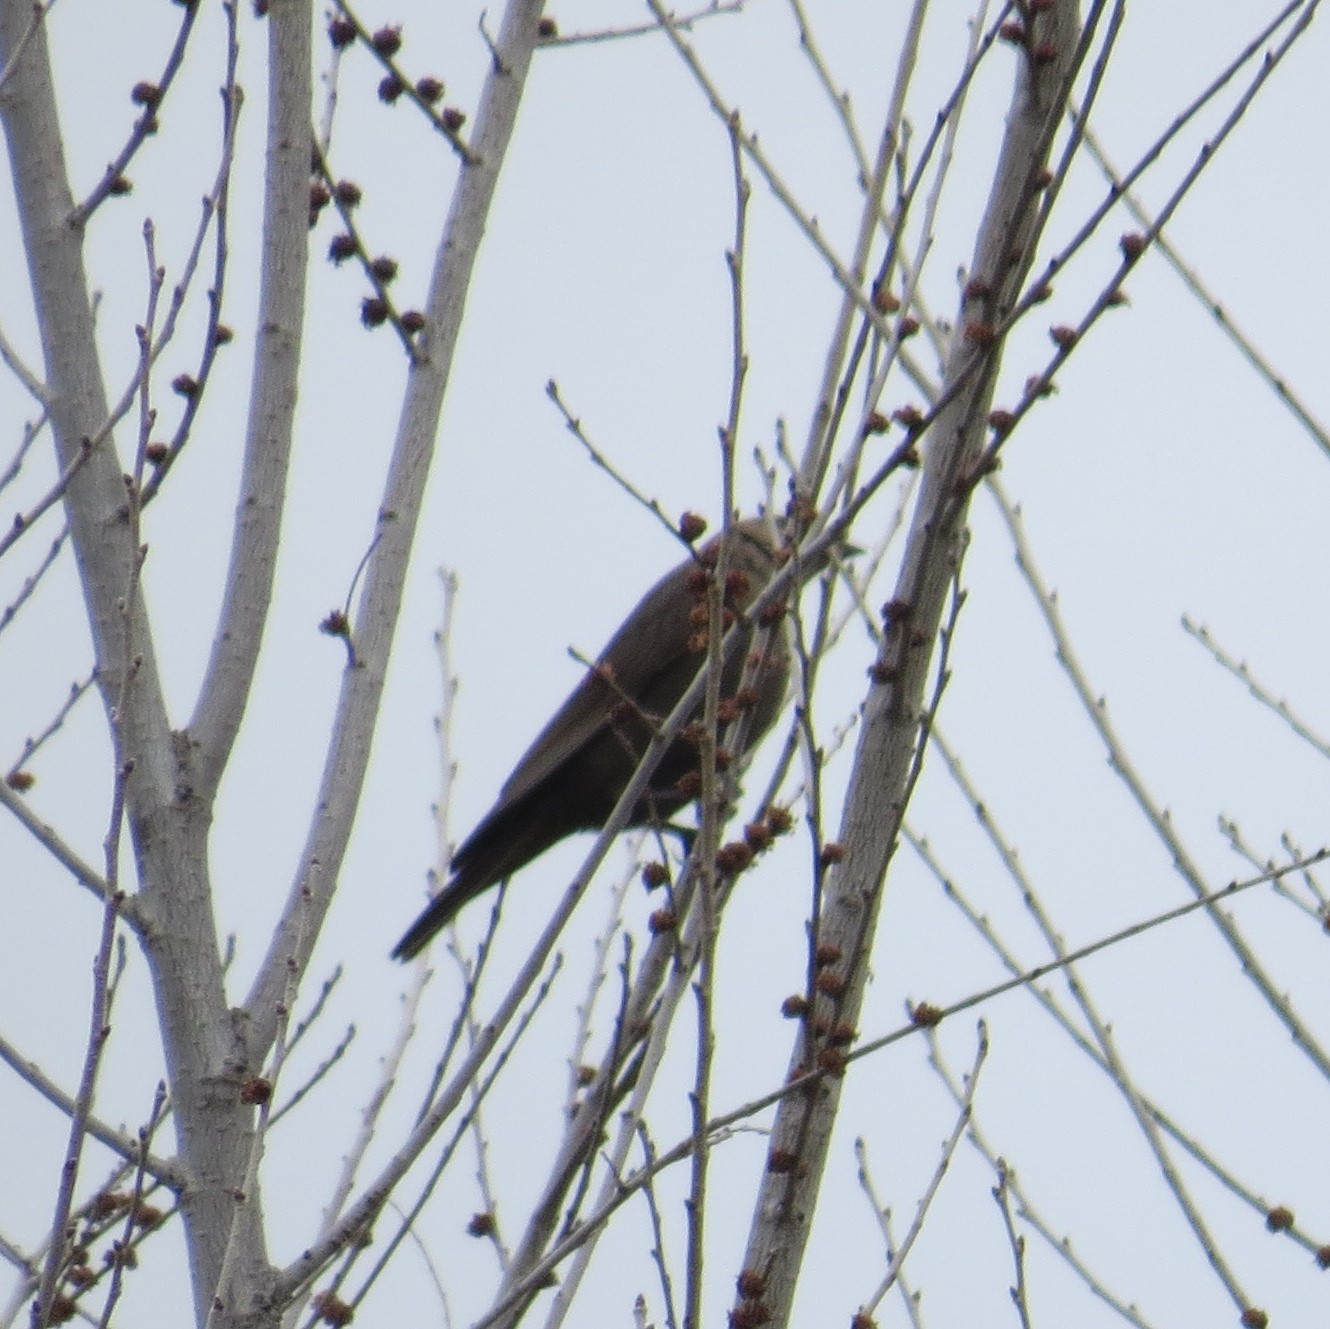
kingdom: Animalia
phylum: Chordata
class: Aves
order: Passeriformes
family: Icteridae
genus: Molothrus
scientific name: Molothrus ater
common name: Brown-headed cowbird
